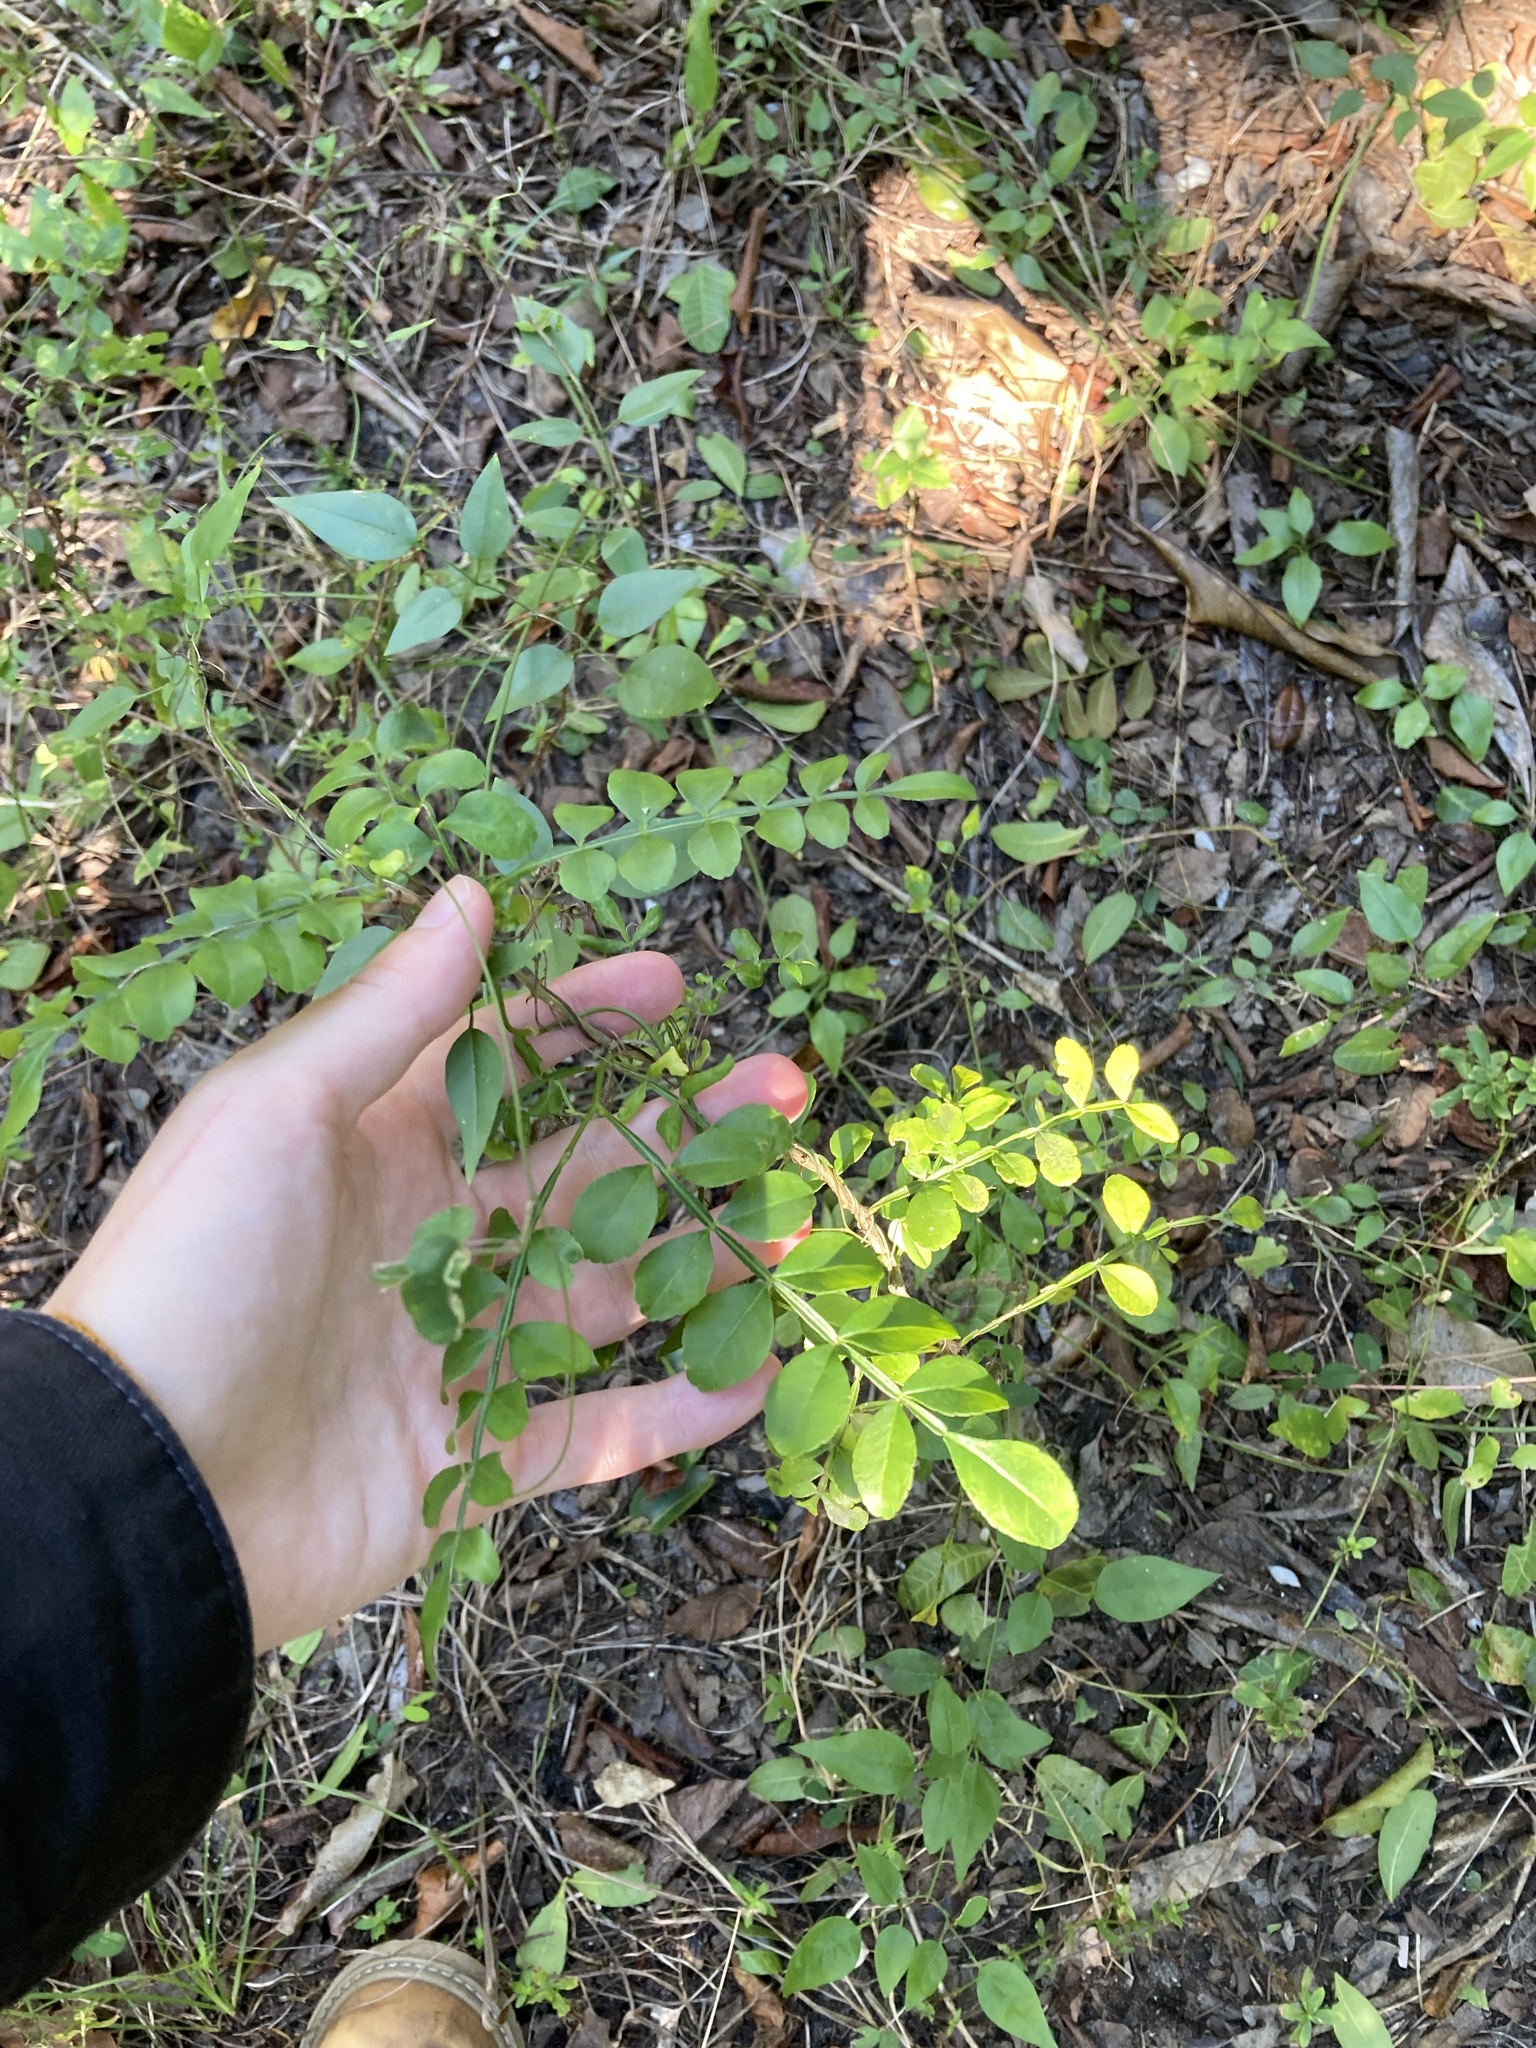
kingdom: Plantae
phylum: Tracheophyta
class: Magnoliopsida
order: Sapindales
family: Rutaceae
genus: Zanthoxylum
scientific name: Zanthoxylum fagara
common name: Lime prickly-ash
